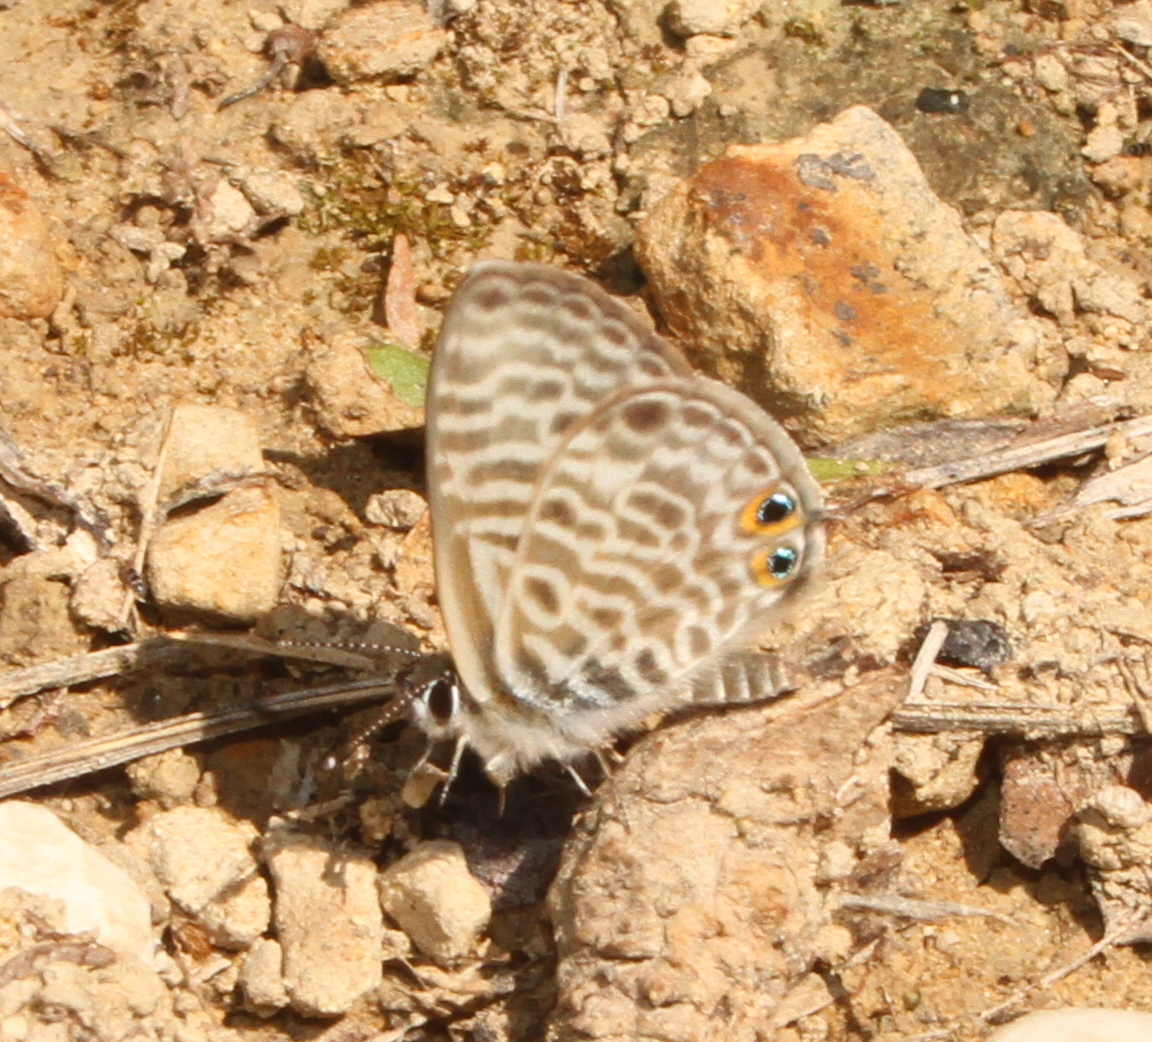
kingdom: Animalia
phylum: Arthropoda
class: Insecta
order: Lepidoptera
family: Lycaenidae
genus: Leptotes
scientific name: Leptotes pirithous
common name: Lang's short-tailed blue
